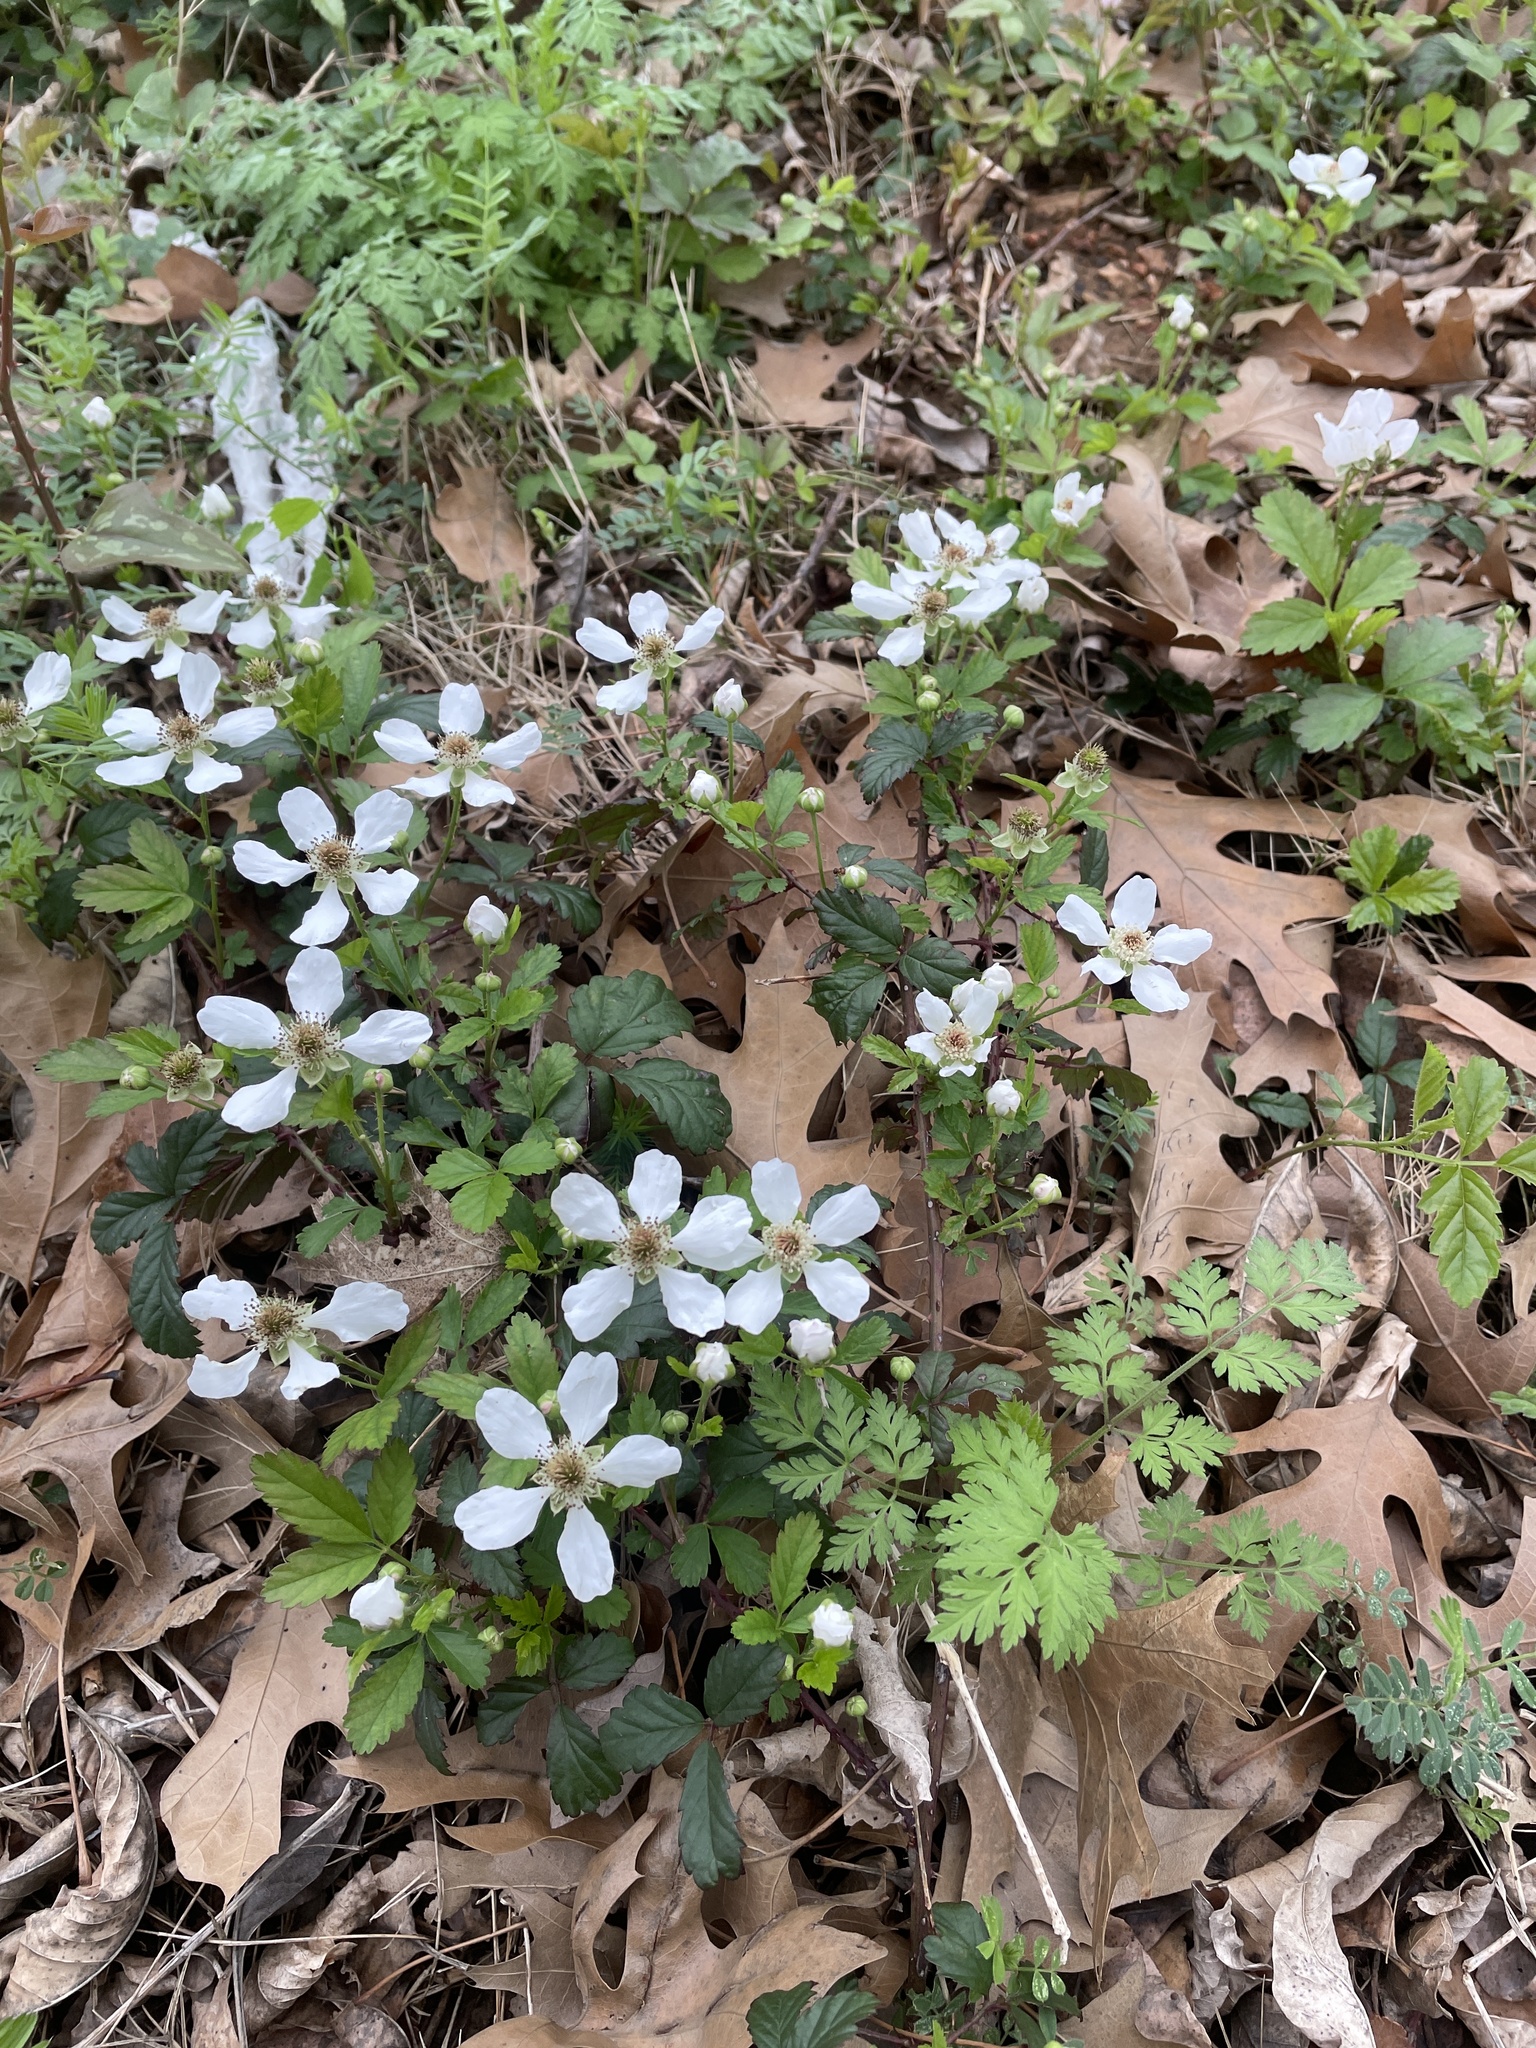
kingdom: Plantae
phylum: Tracheophyta
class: Magnoliopsida
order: Rosales
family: Rosaceae
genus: Rubus
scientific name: Rubus trivialis
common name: Southern dewberry
